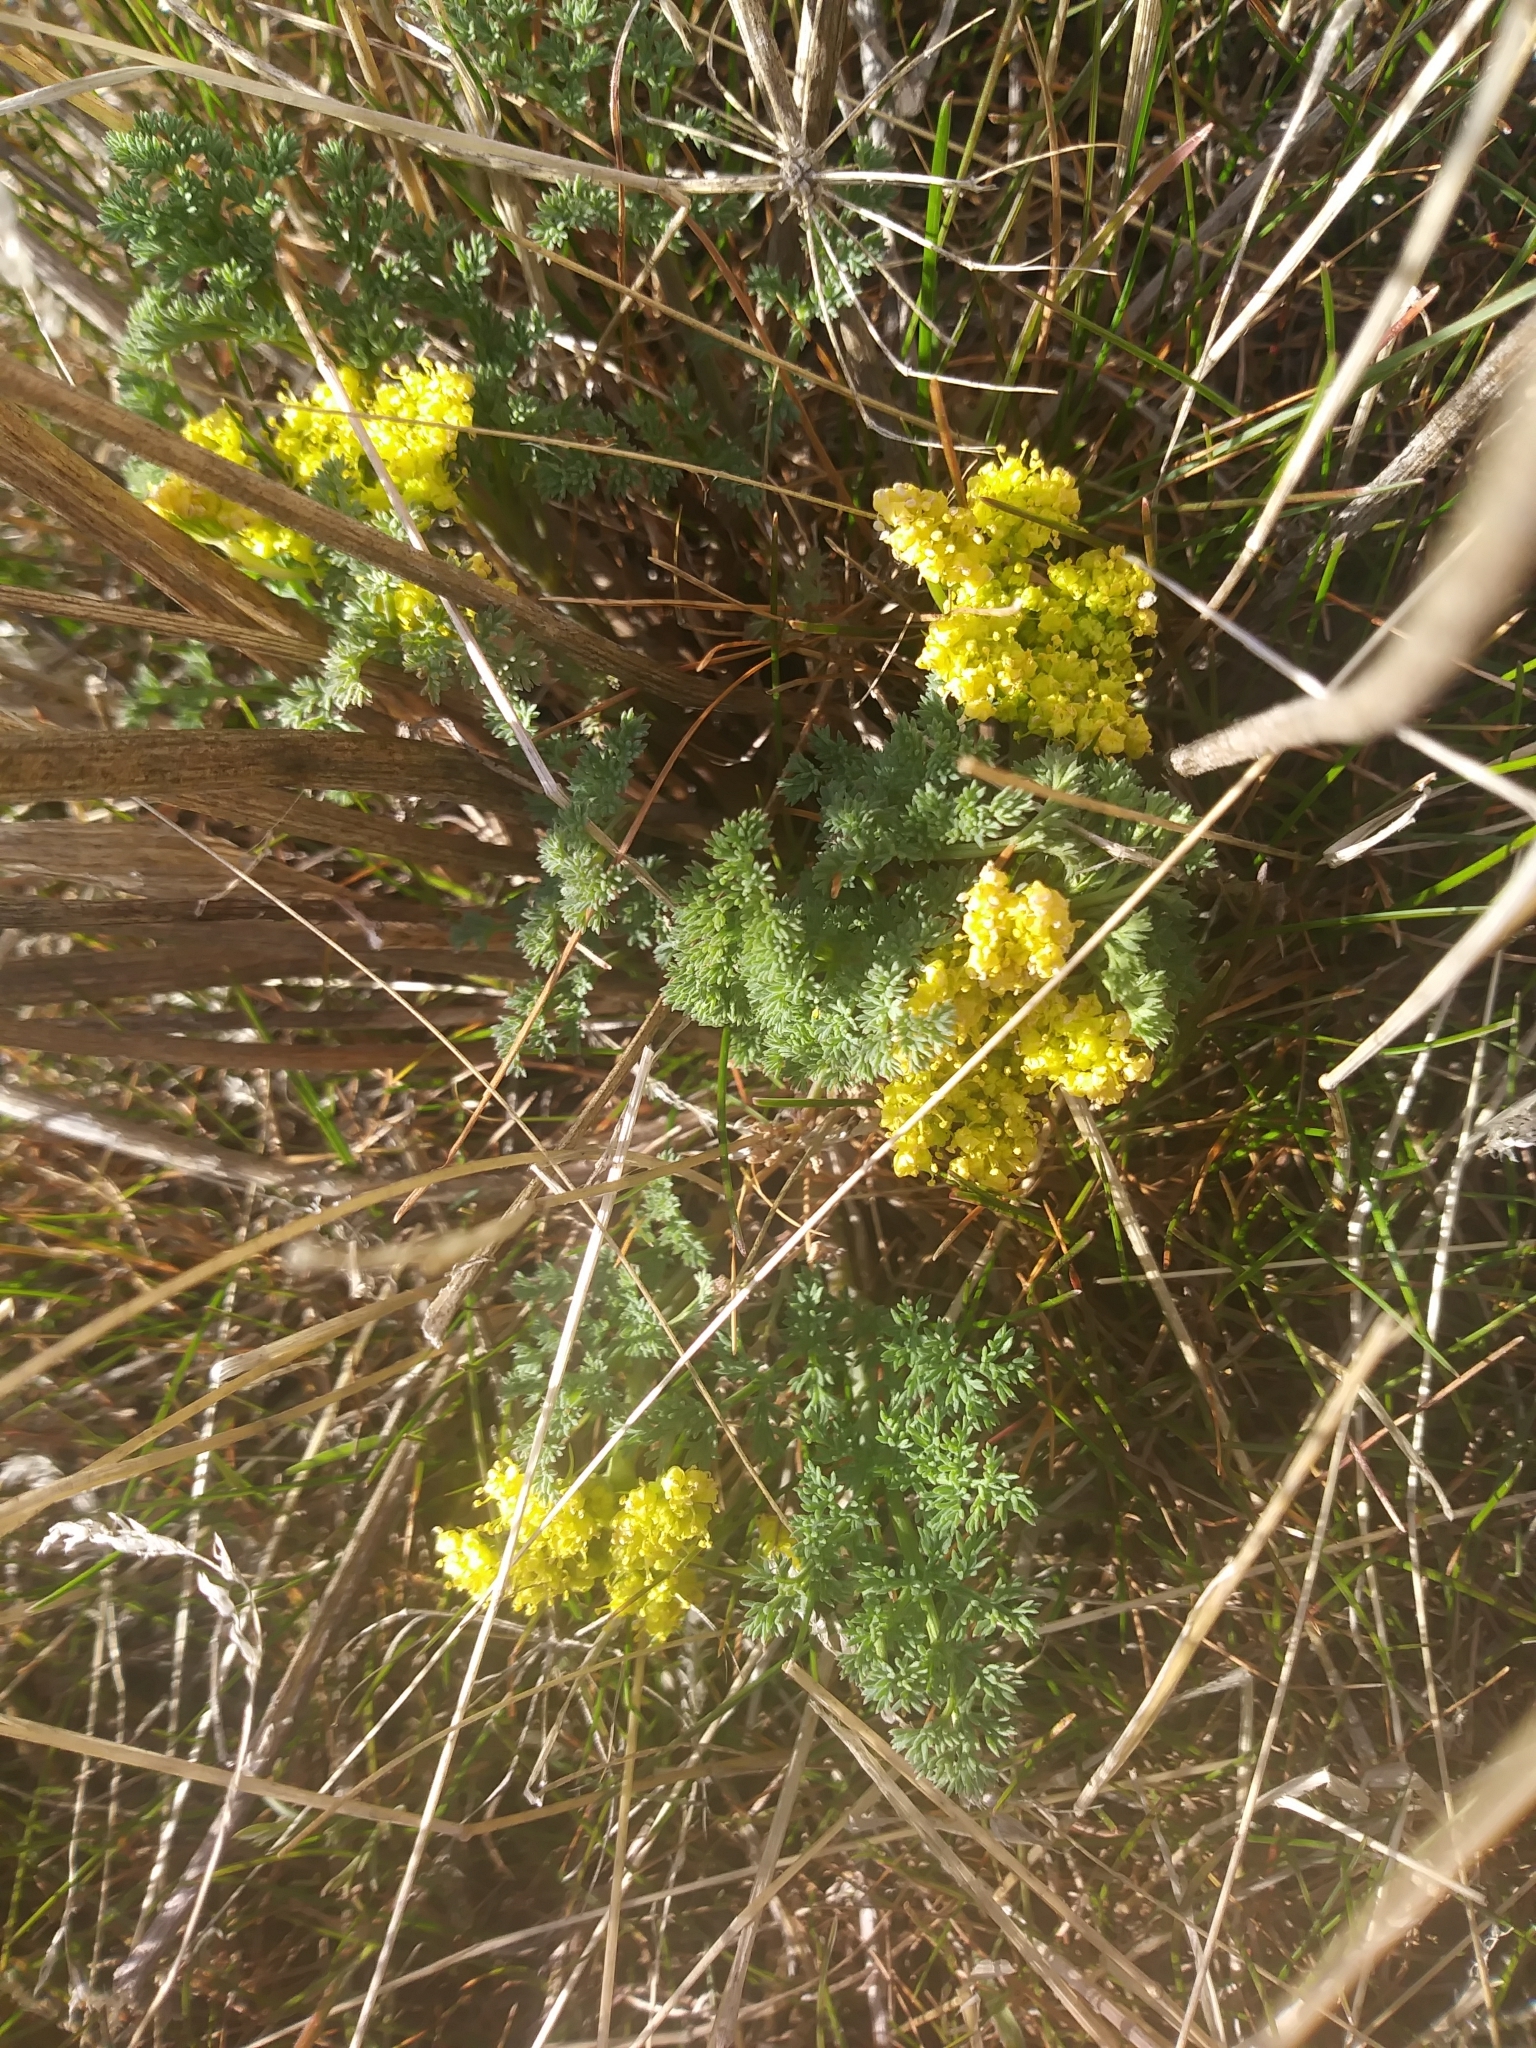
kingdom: Plantae
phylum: Tracheophyta
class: Magnoliopsida
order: Apiales
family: Apiaceae
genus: Lomatium
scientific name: Lomatium papilioniferum
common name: Butterfly lomatium
